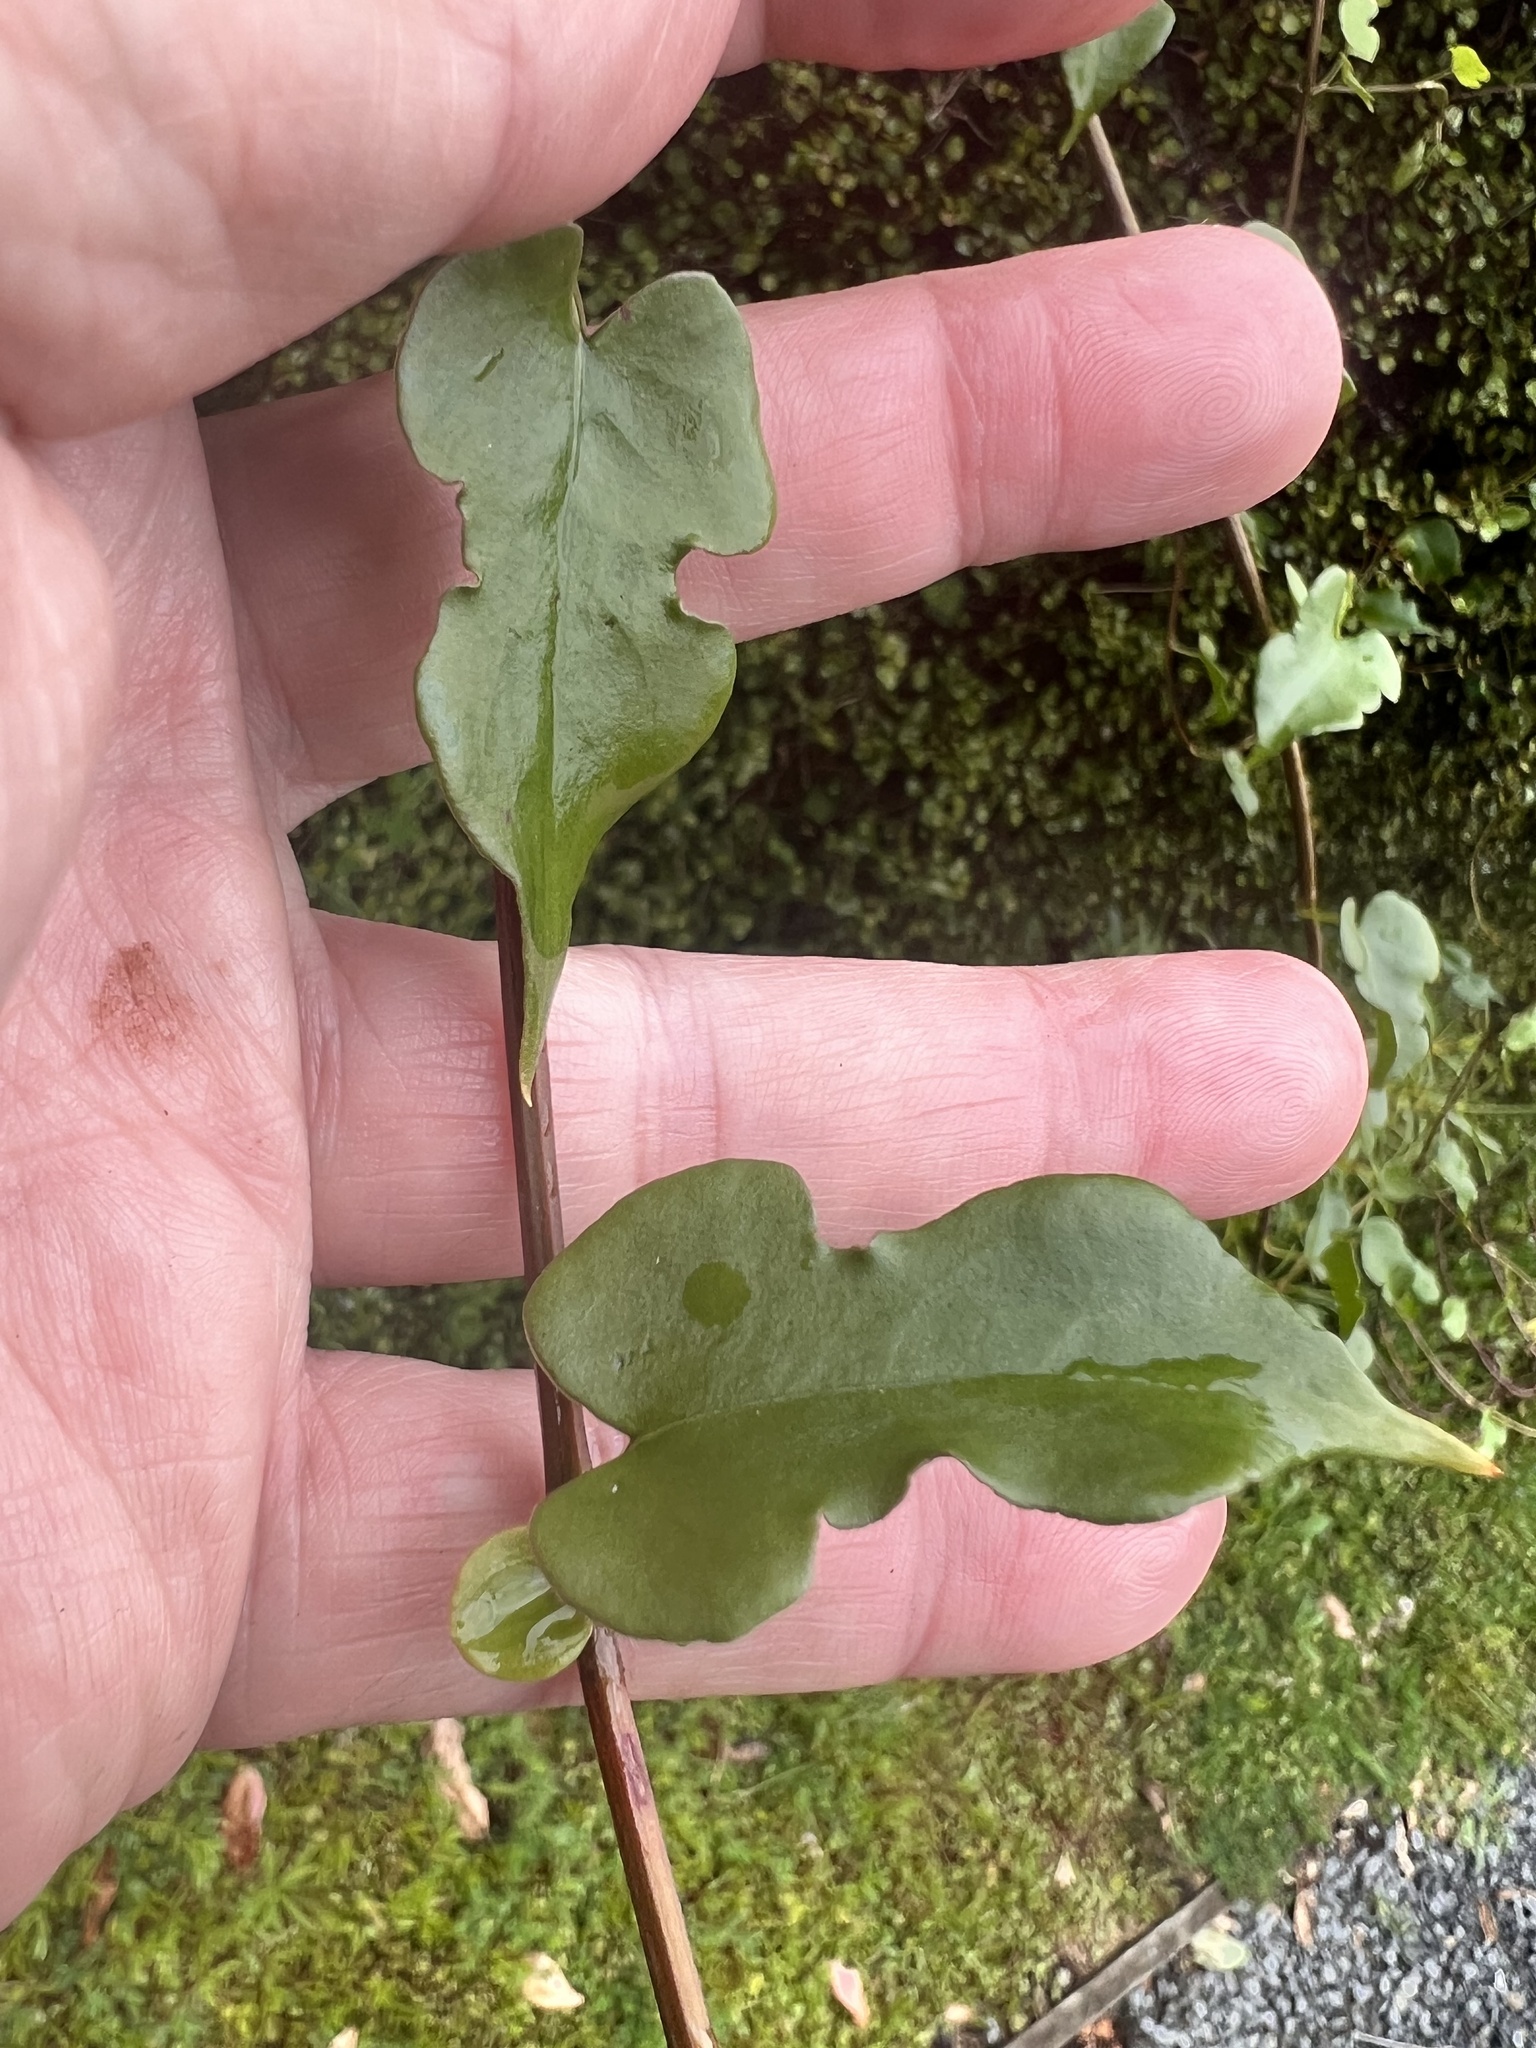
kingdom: Plantae
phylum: Tracheophyta
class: Magnoliopsida
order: Caryophyllales
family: Polygonaceae
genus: Muehlenbeckia
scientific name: Muehlenbeckia australis
